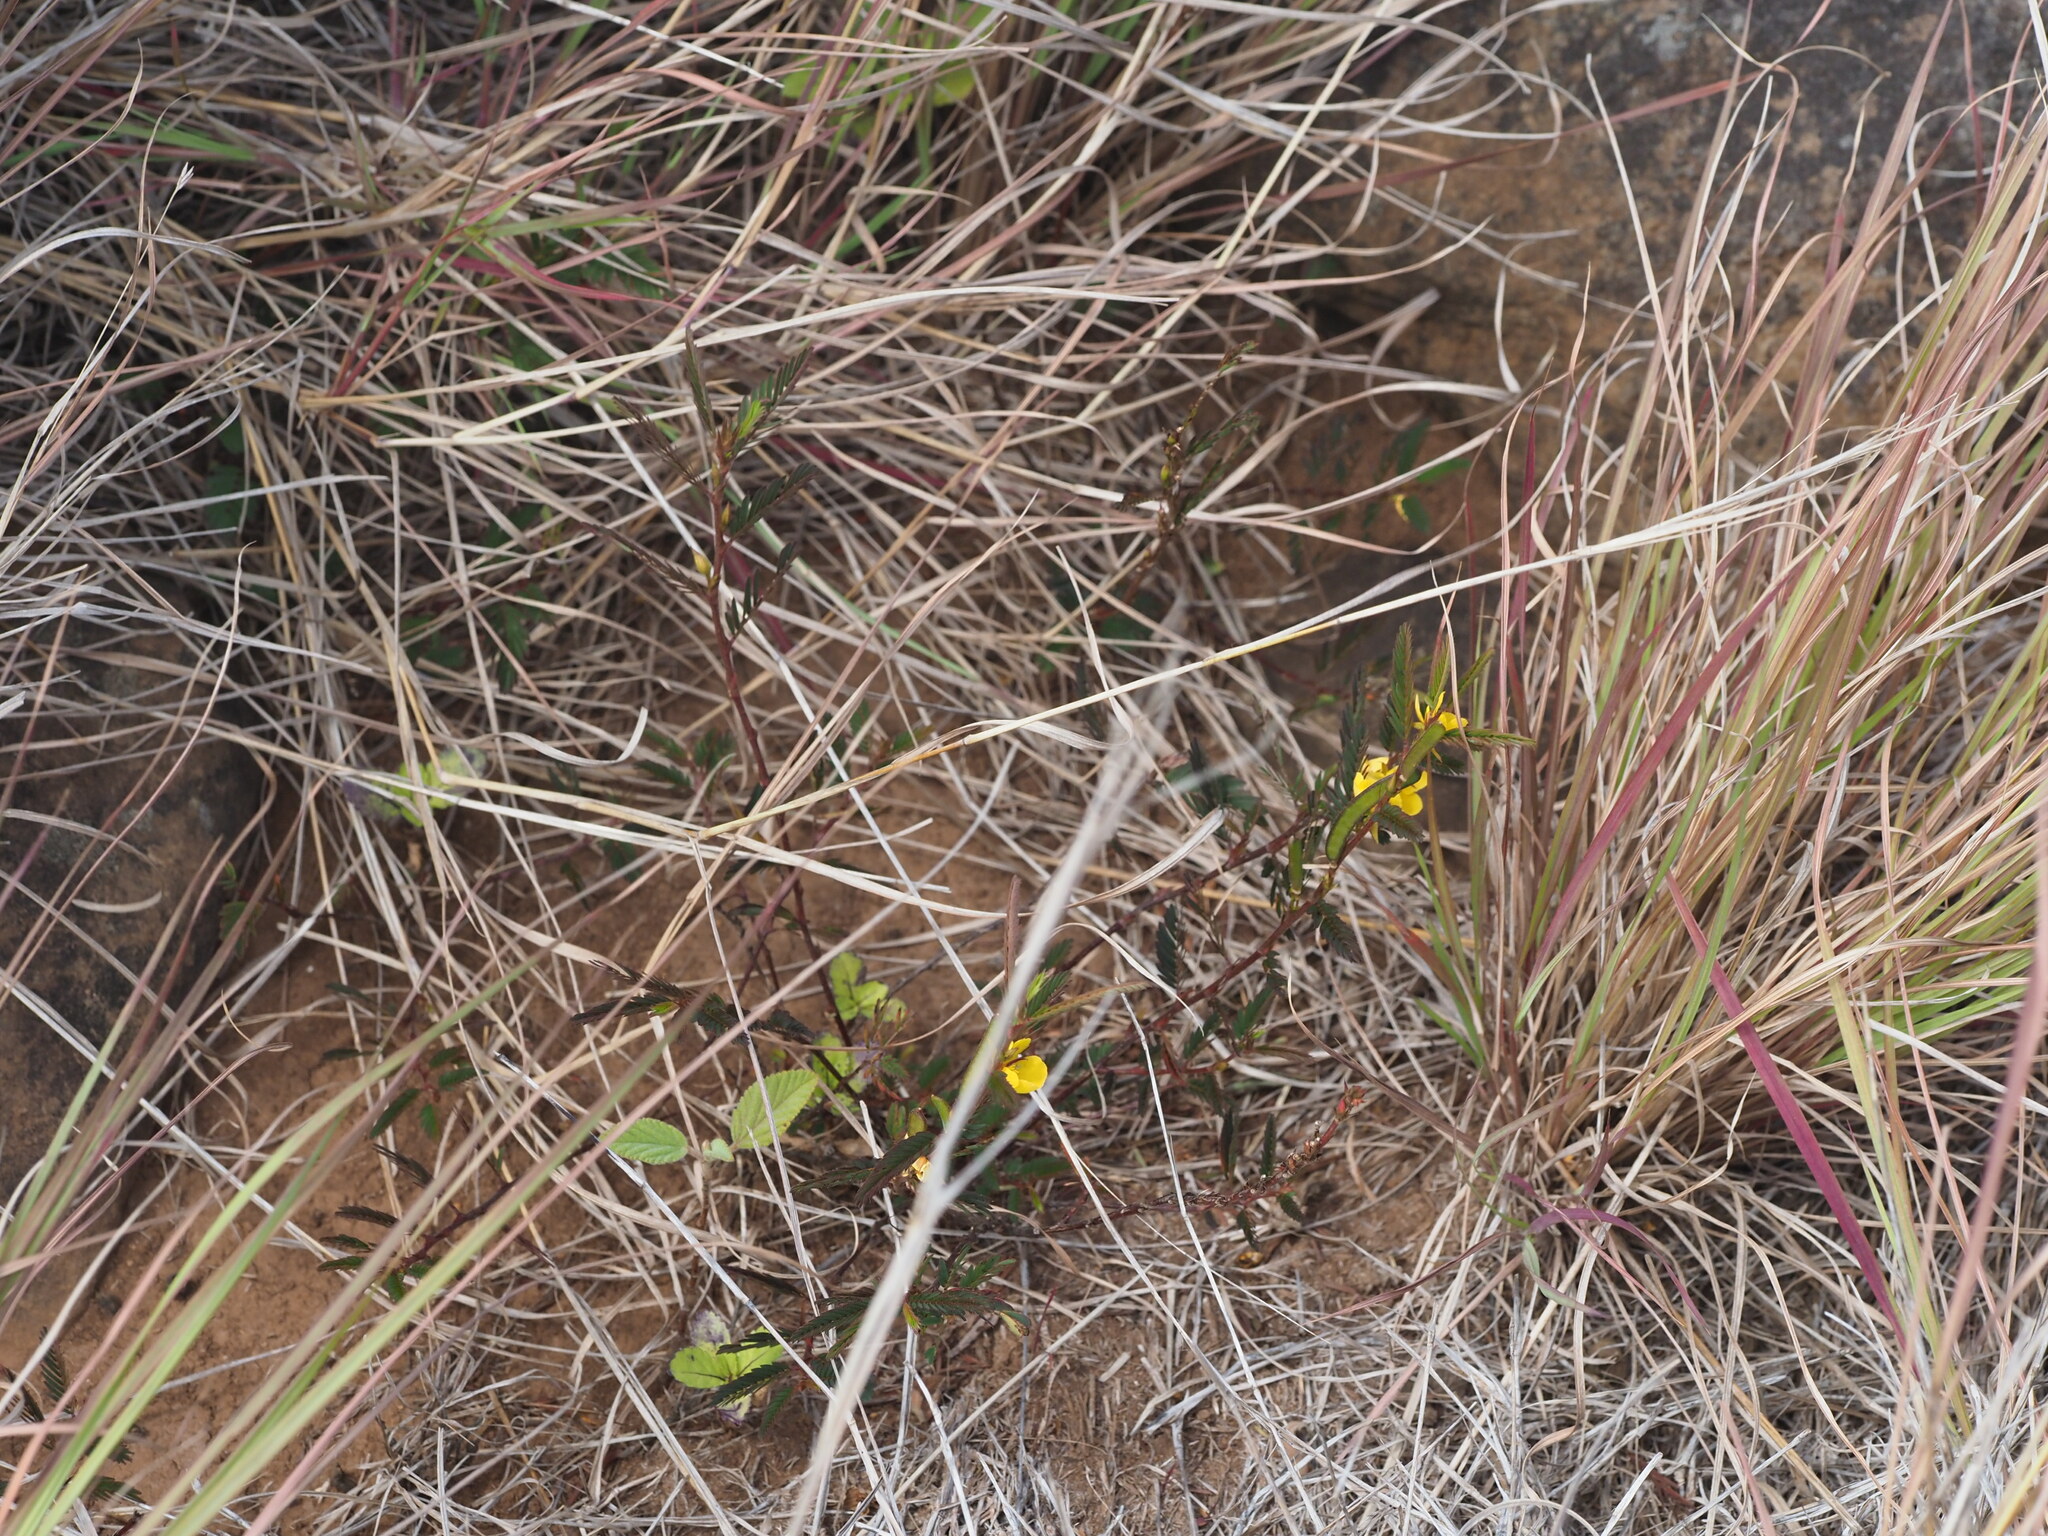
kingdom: Plantae
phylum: Tracheophyta
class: Magnoliopsida
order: Fabales
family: Fabaceae
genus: Chamaecrista
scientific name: Chamaecrista nictitans
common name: Sensitive cassia
